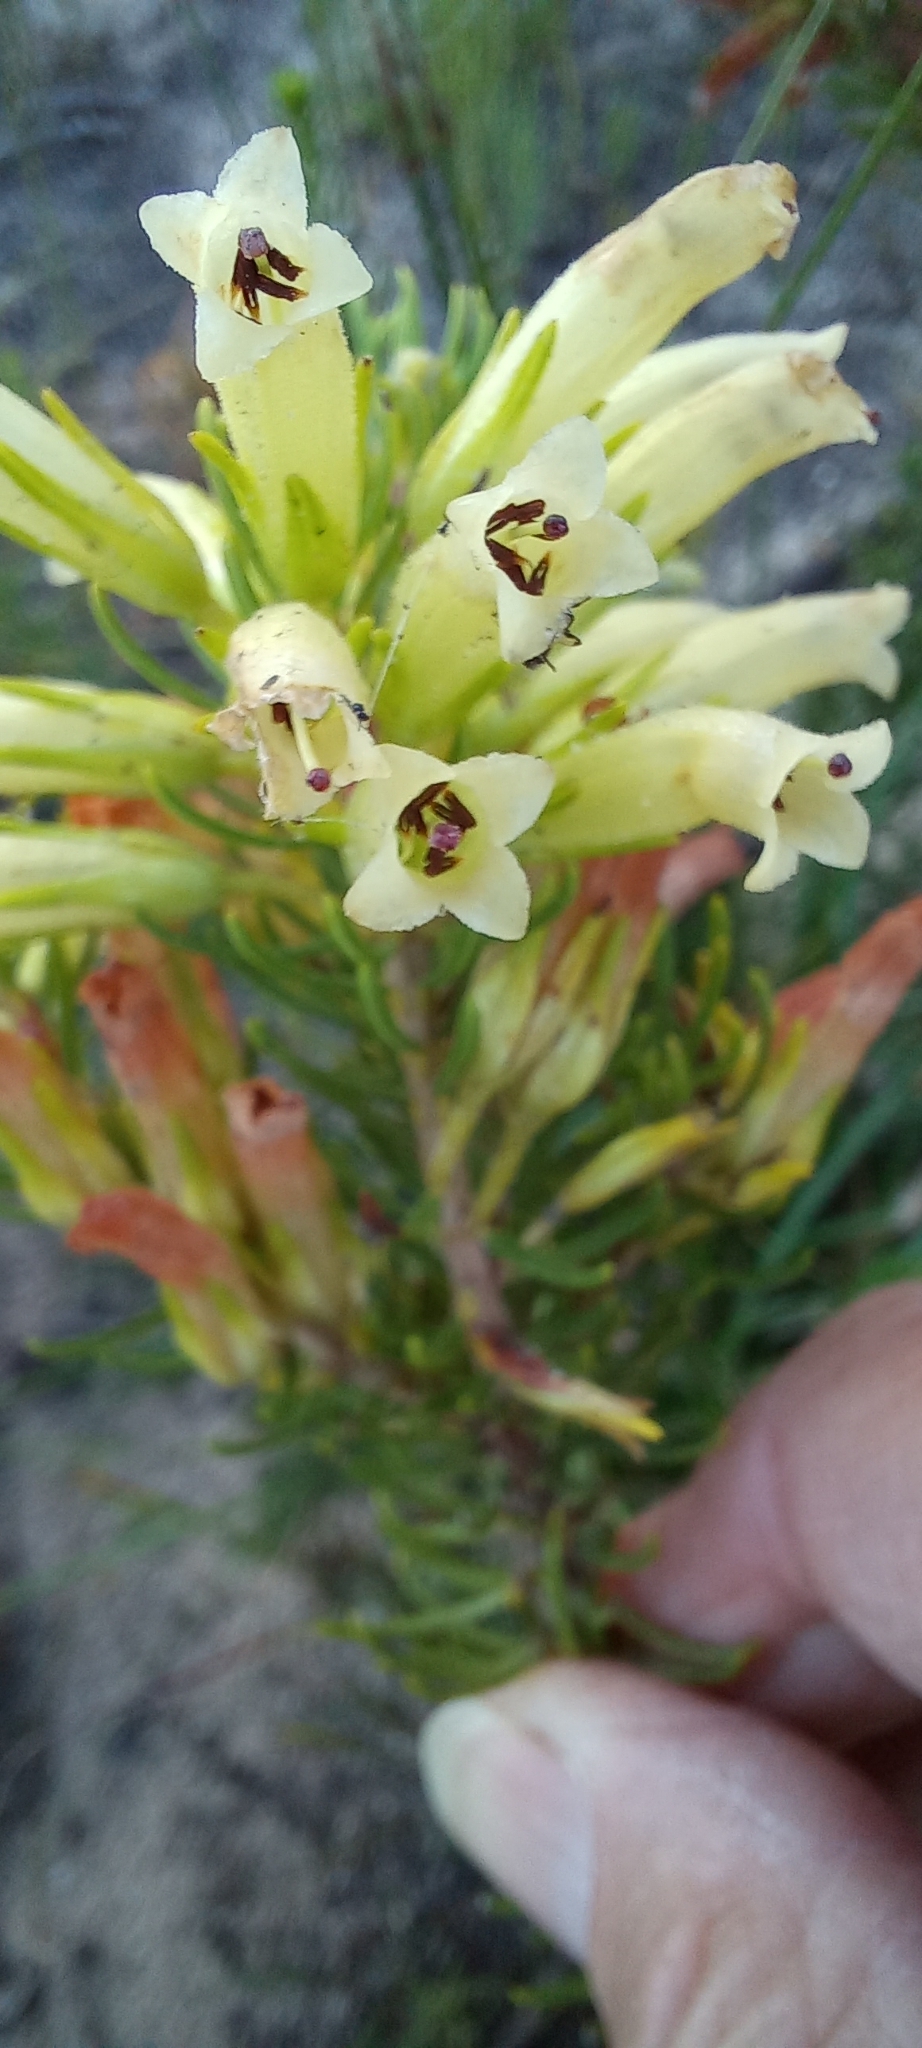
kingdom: Plantae
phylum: Tracheophyta
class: Magnoliopsida
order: Ericales
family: Ericaceae
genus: Erica
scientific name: Erica thomae
